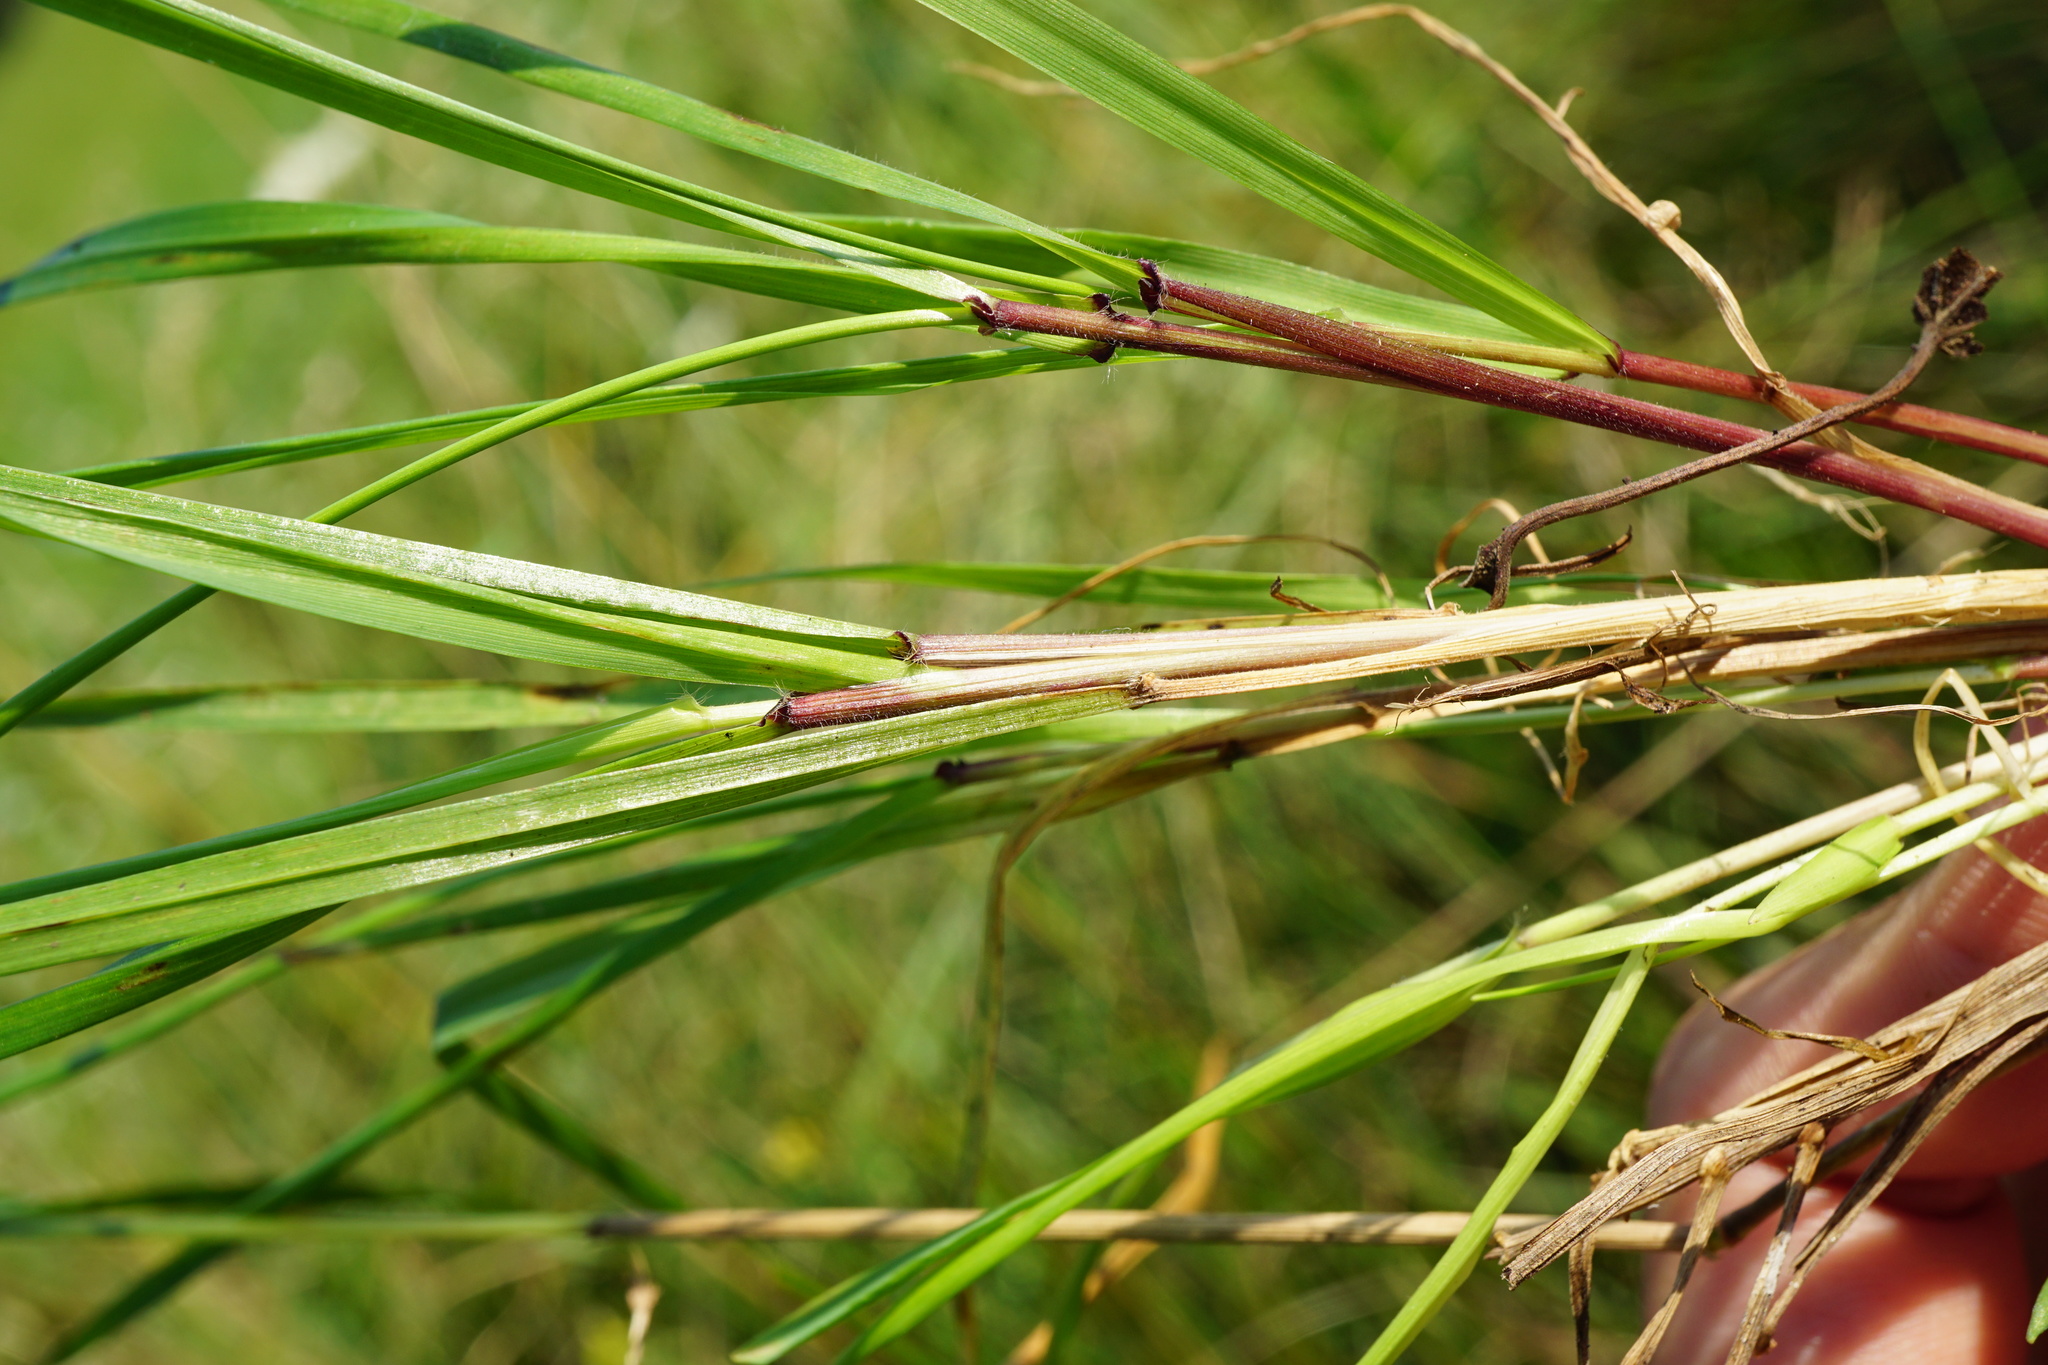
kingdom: Plantae
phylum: Tracheophyta
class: Liliopsida
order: Poales
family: Poaceae
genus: Anthoxanthum
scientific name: Anthoxanthum odoratum
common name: Sweet vernalgrass
